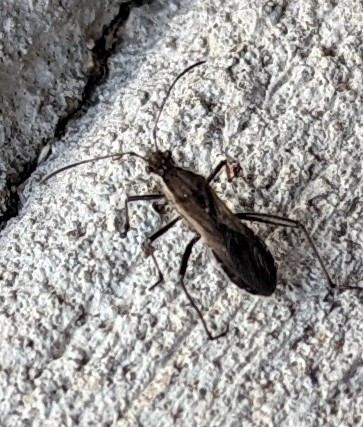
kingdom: Animalia
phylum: Arthropoda
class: Insecta
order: Hemiptera
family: Alydidae
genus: Alydus
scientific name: Alydus pilosulus
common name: Broad-headed bug
